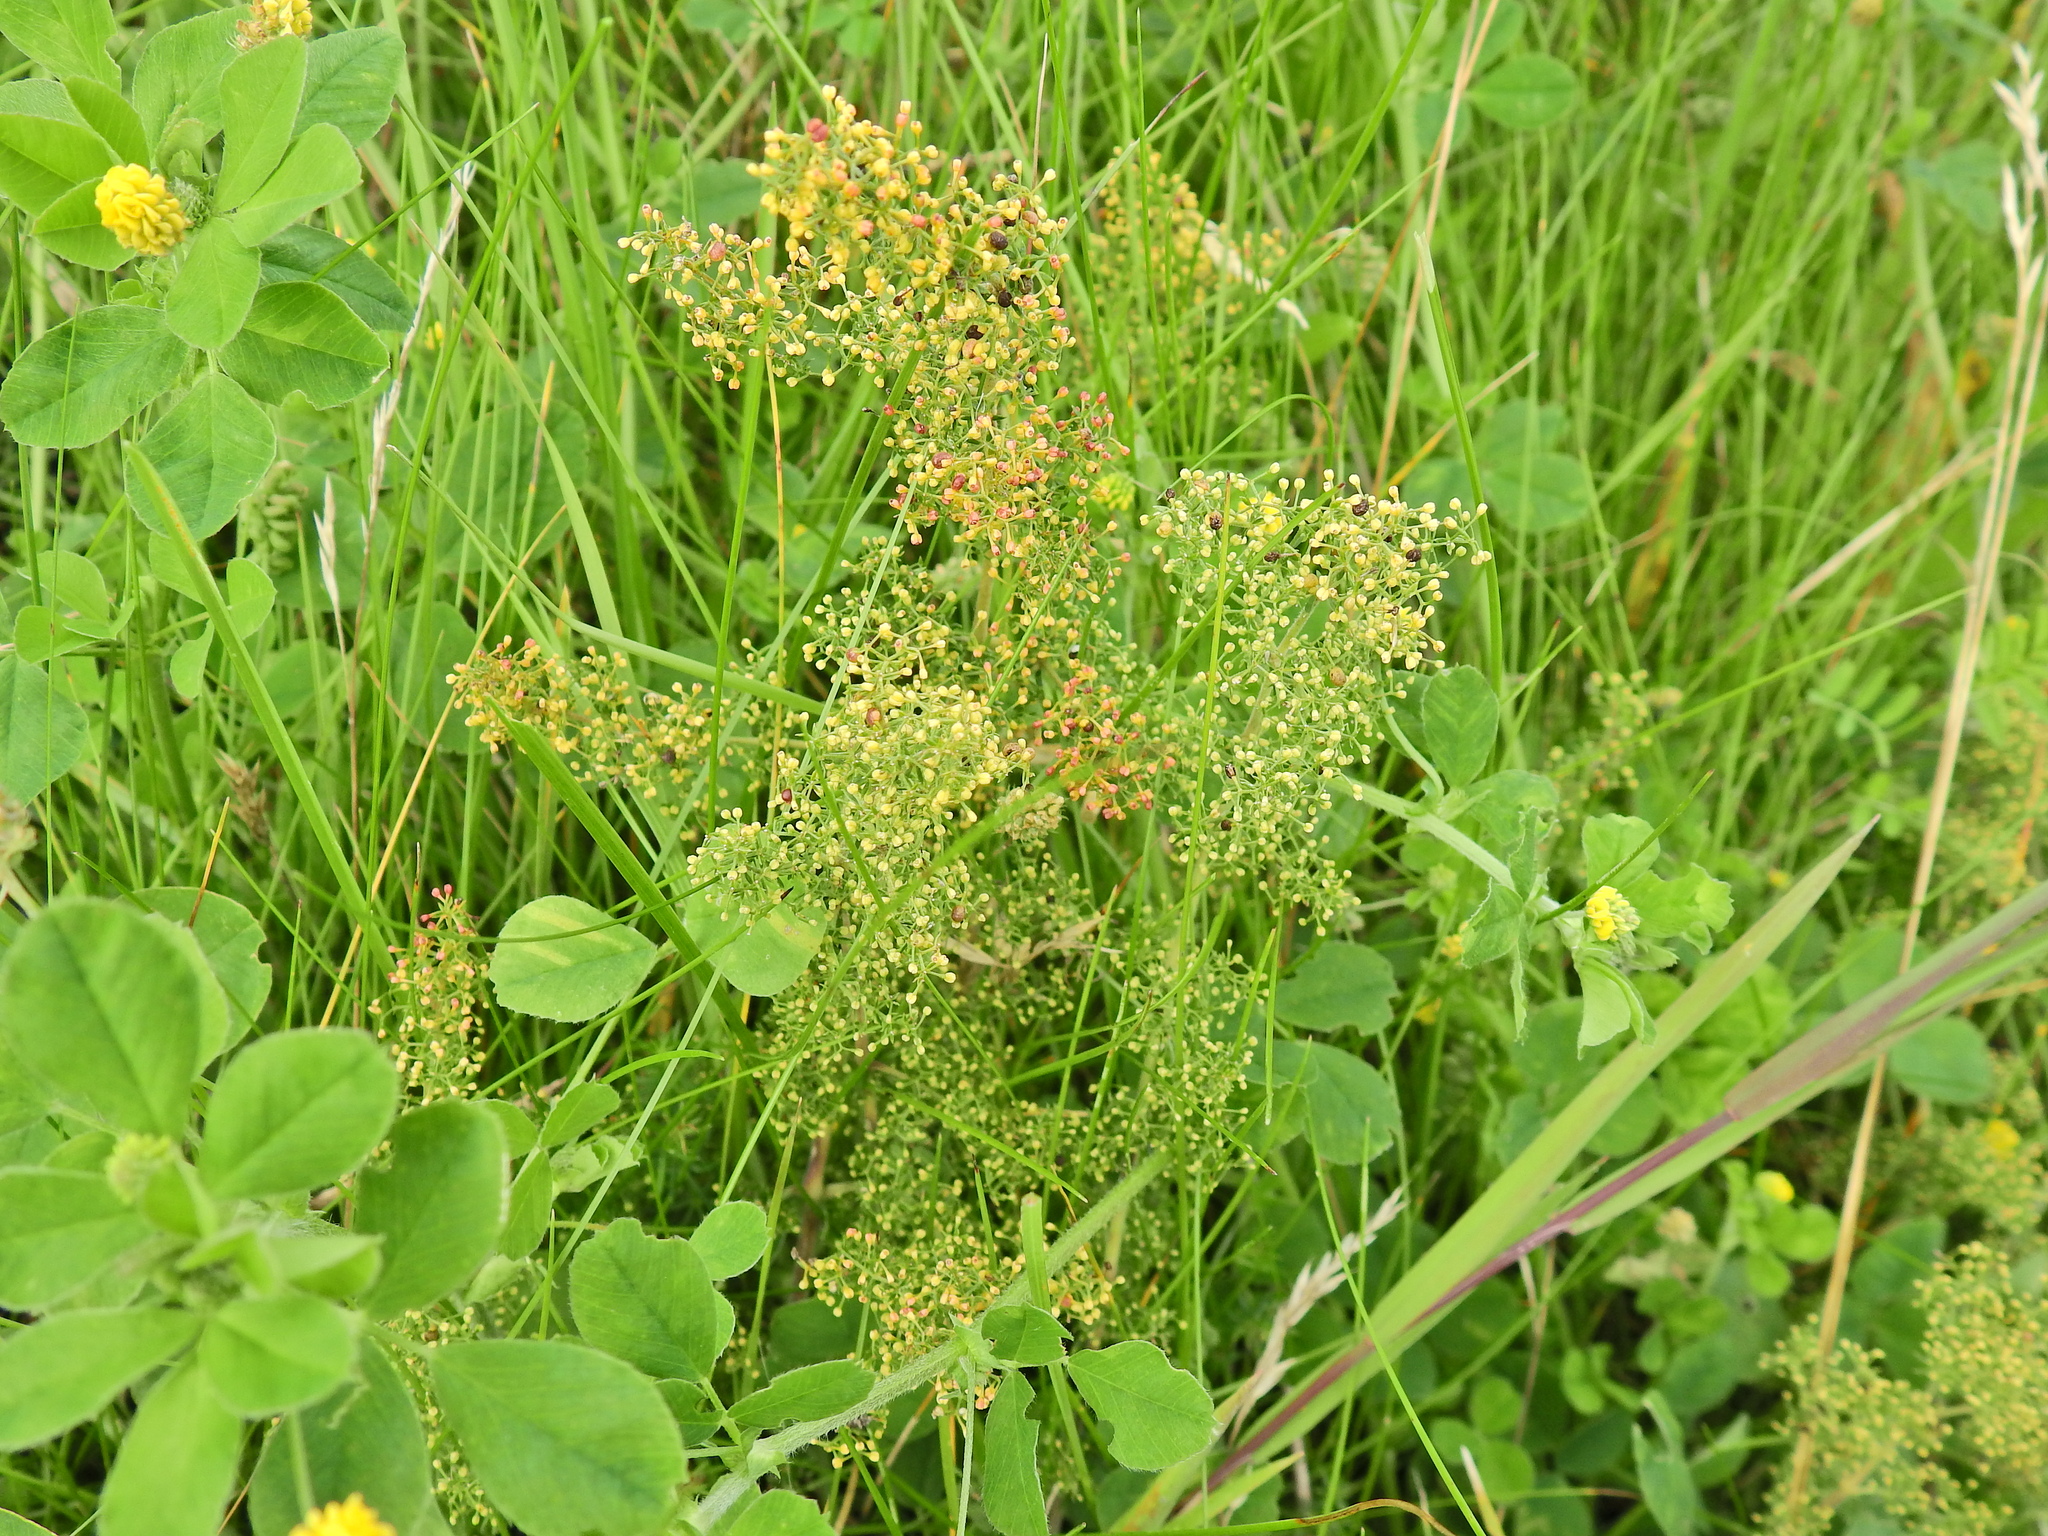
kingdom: Plantae
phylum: Tracheophyta
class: Magnoliopsida
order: Gentianales
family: Rubiaceae
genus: Galium
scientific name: Galium verum
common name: Lady's bedstraw
